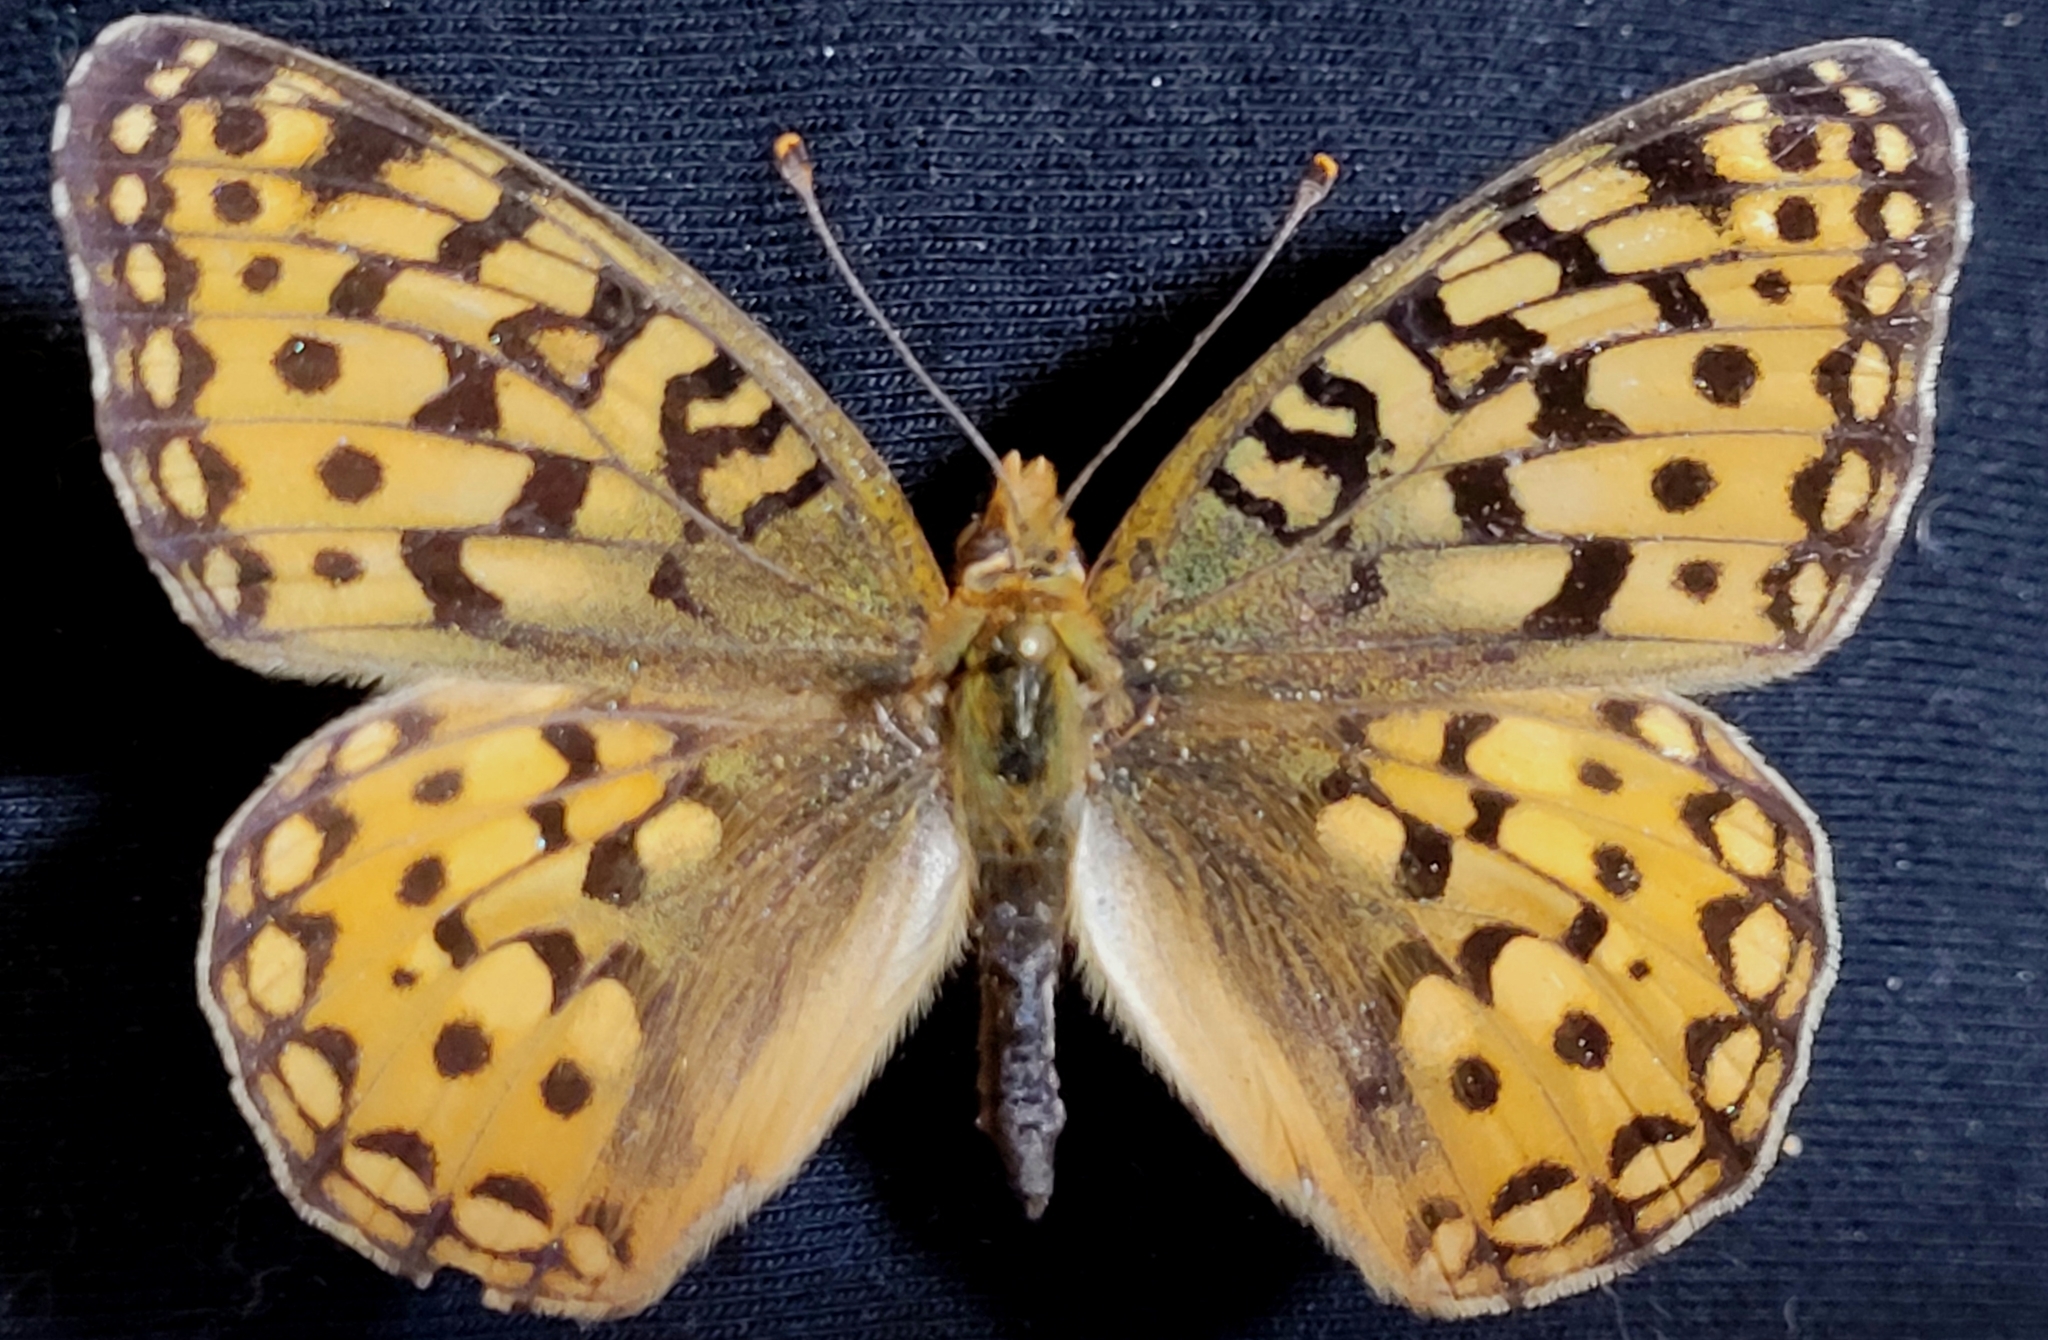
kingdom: Animalia
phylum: Arthropoda
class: Insecta
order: Lepidoptera
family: Nymphalidae
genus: Speyeria
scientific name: Speyeria zerene
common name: Zerene fritillary
